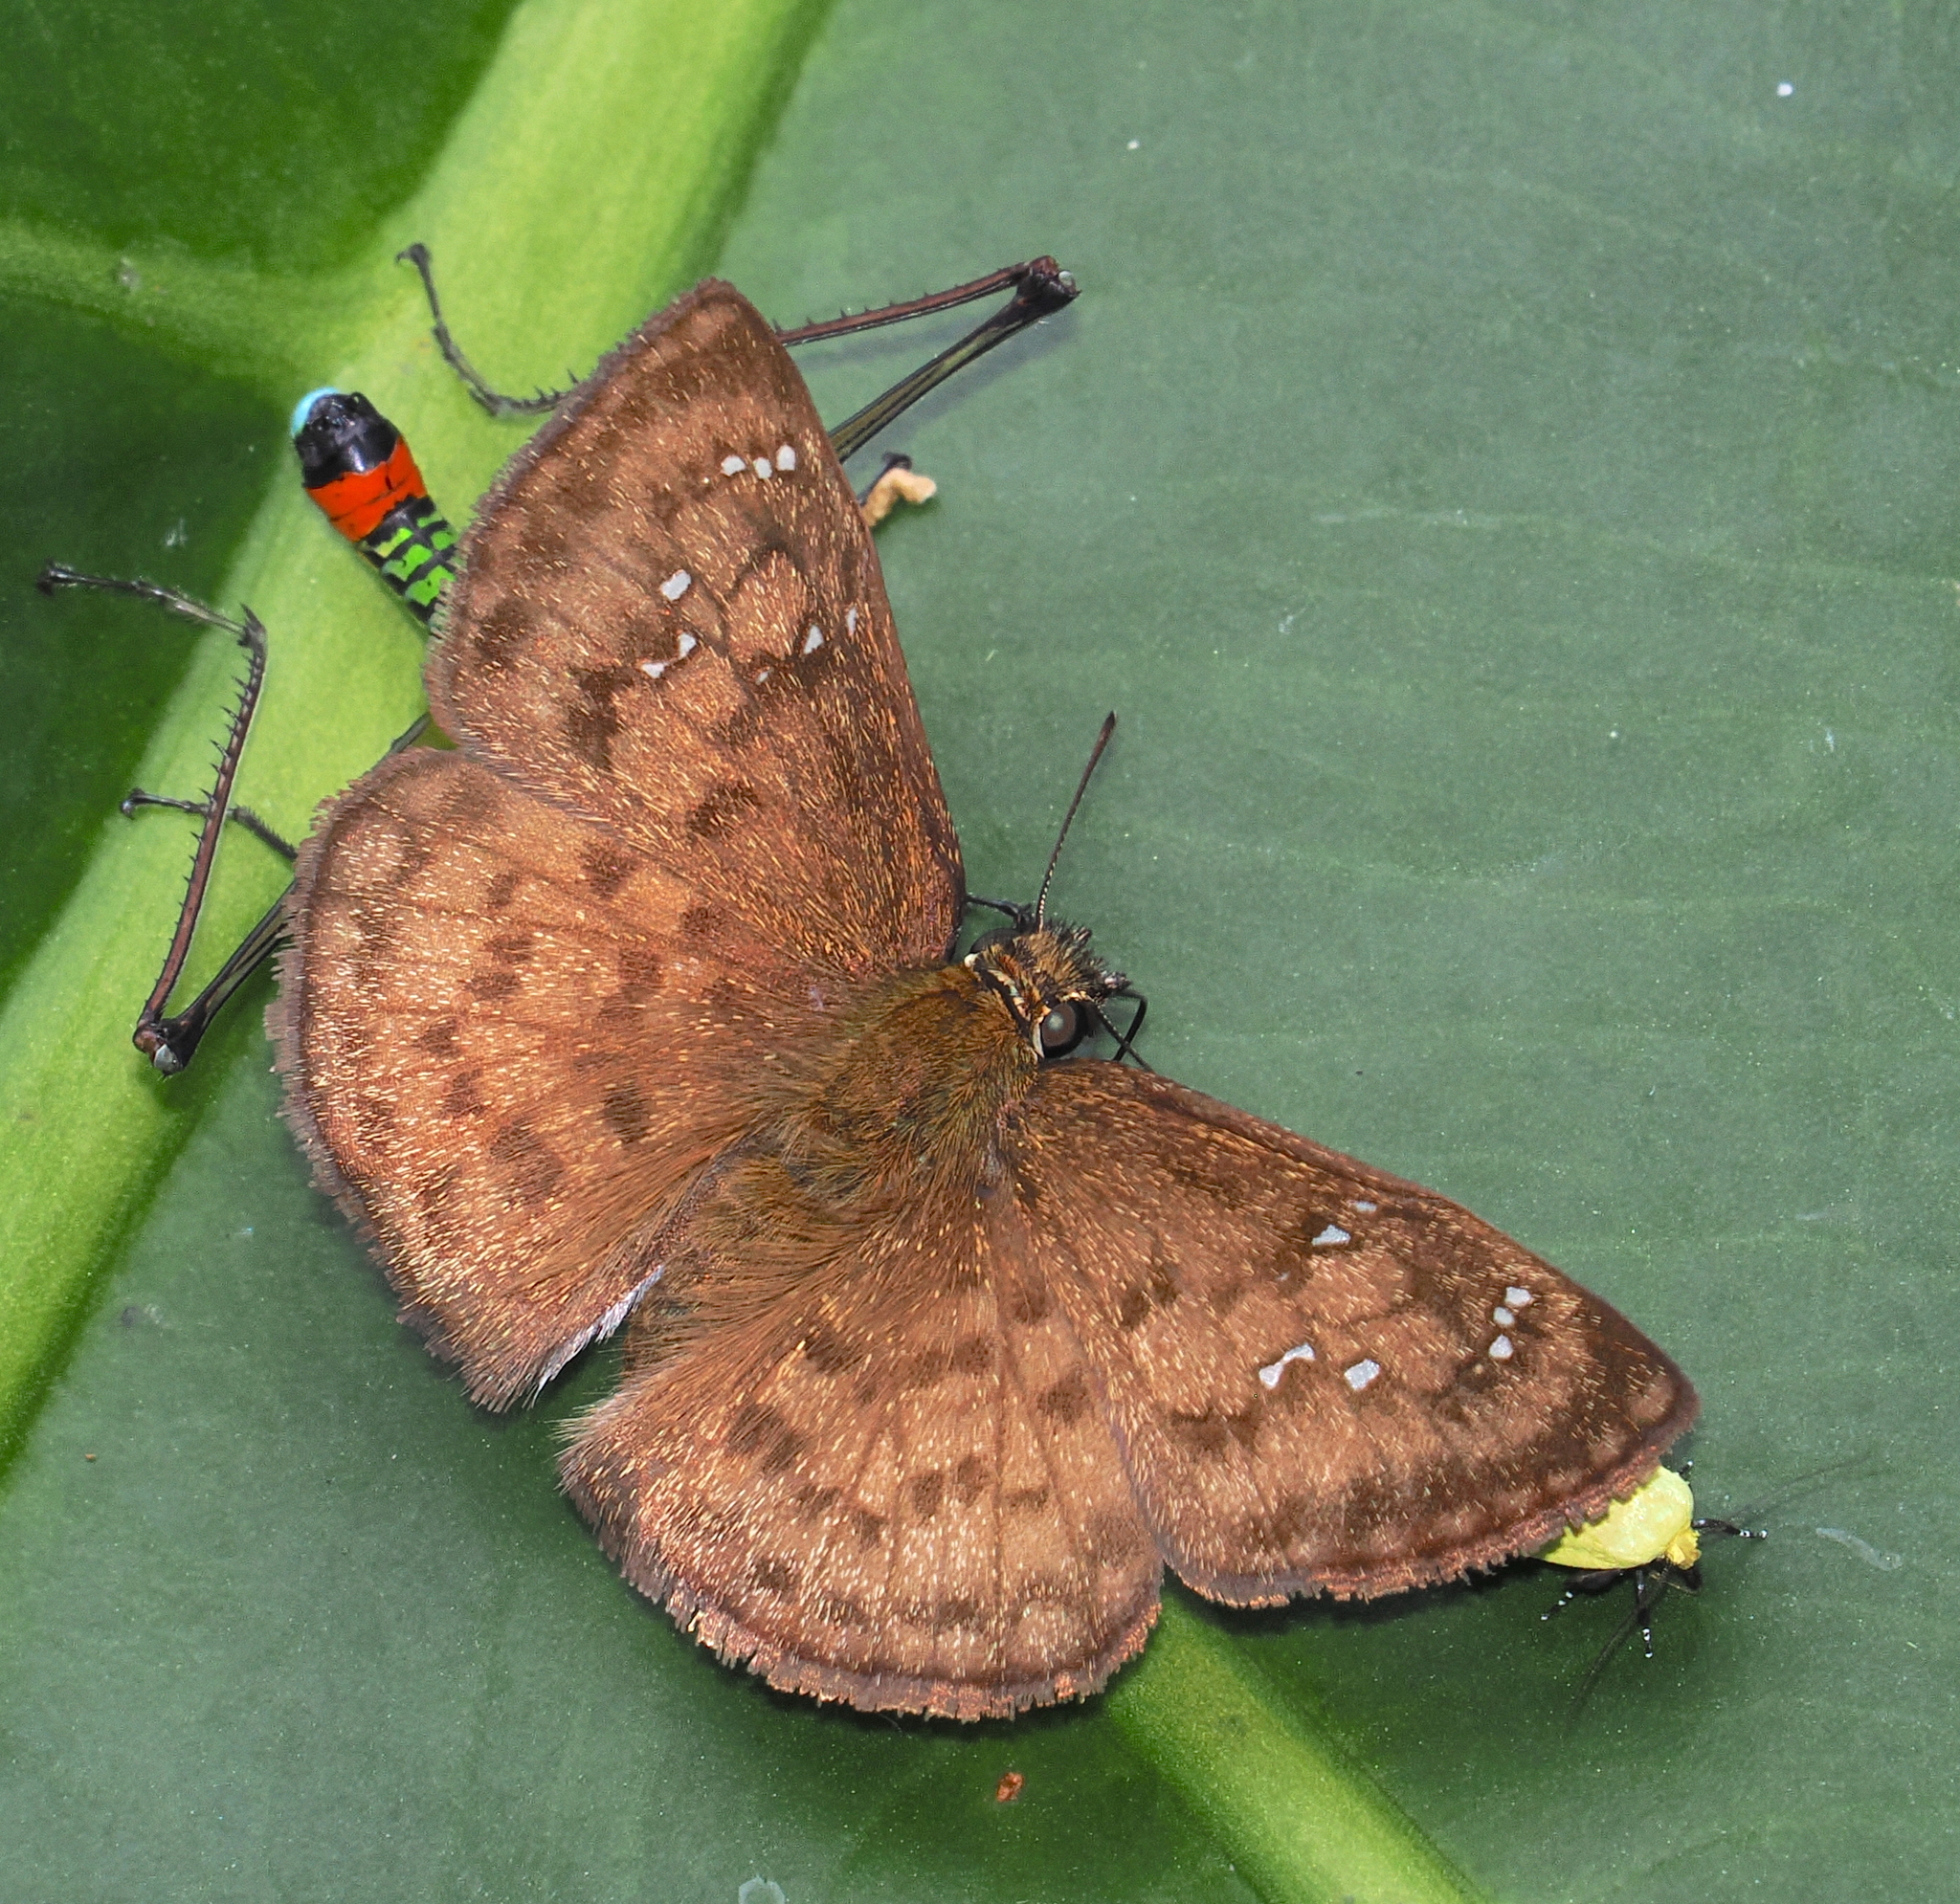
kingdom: Animalia
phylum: Arthropoda
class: Insecta
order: Lepidoptera
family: Hesperiidae
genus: Canesia
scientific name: Canesia
